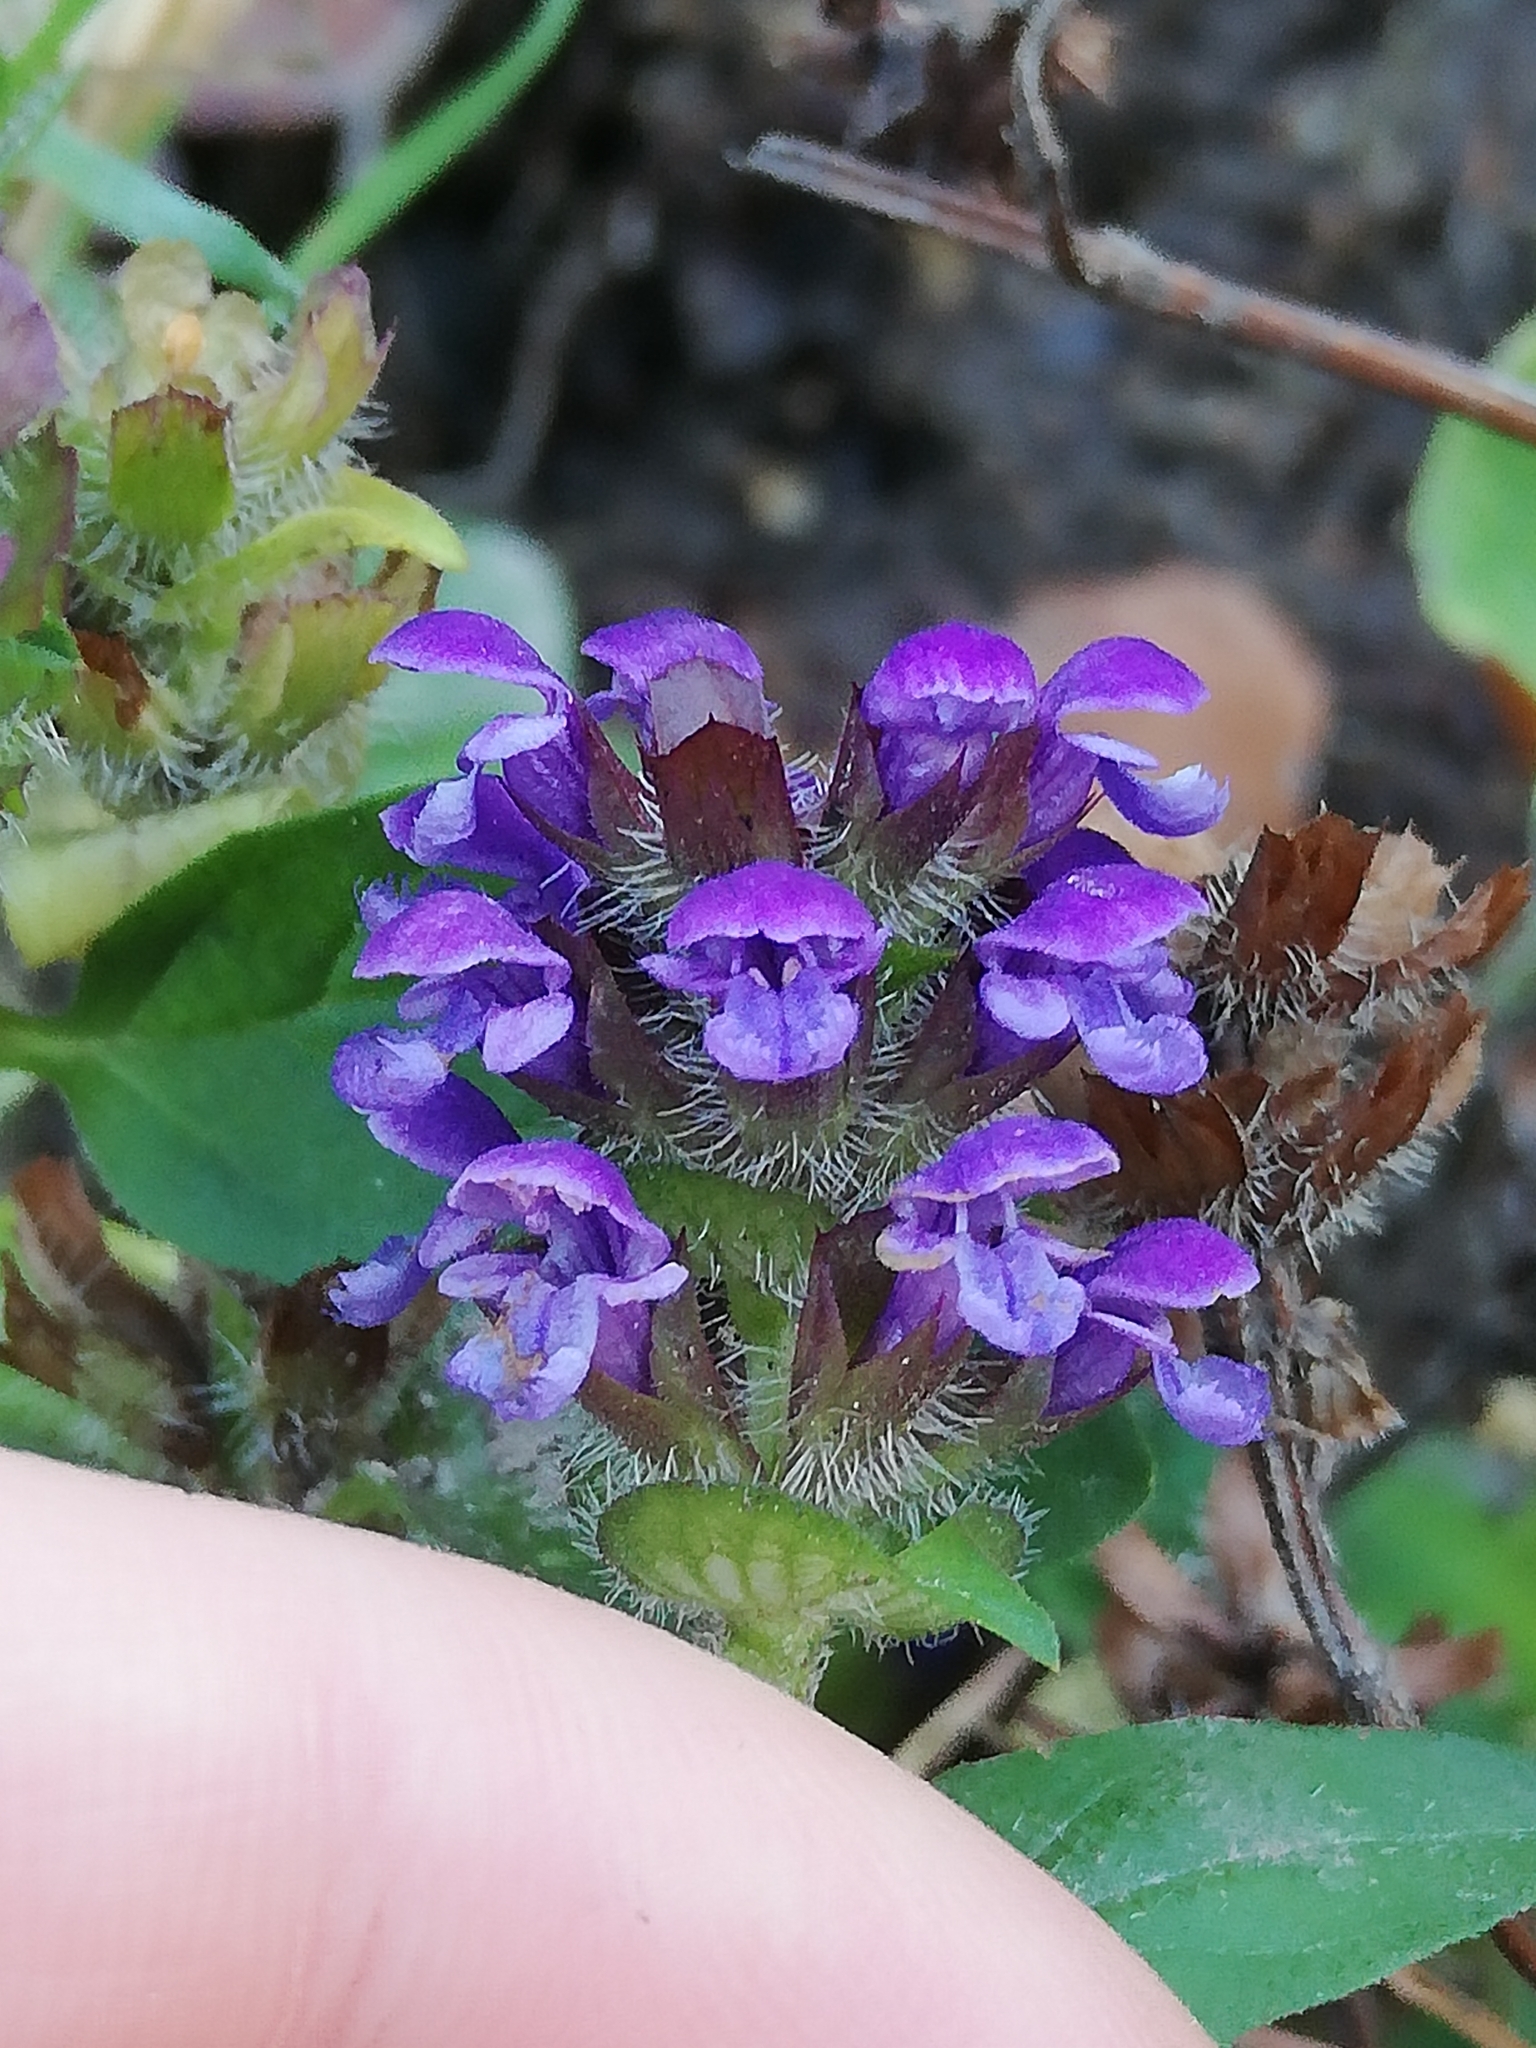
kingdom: Plantae
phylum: Tracheophyta
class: Magnoliopsida
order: Lamiales
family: Lamiaceae
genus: Prunella
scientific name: Prunella vulgaris
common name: Heal-all
